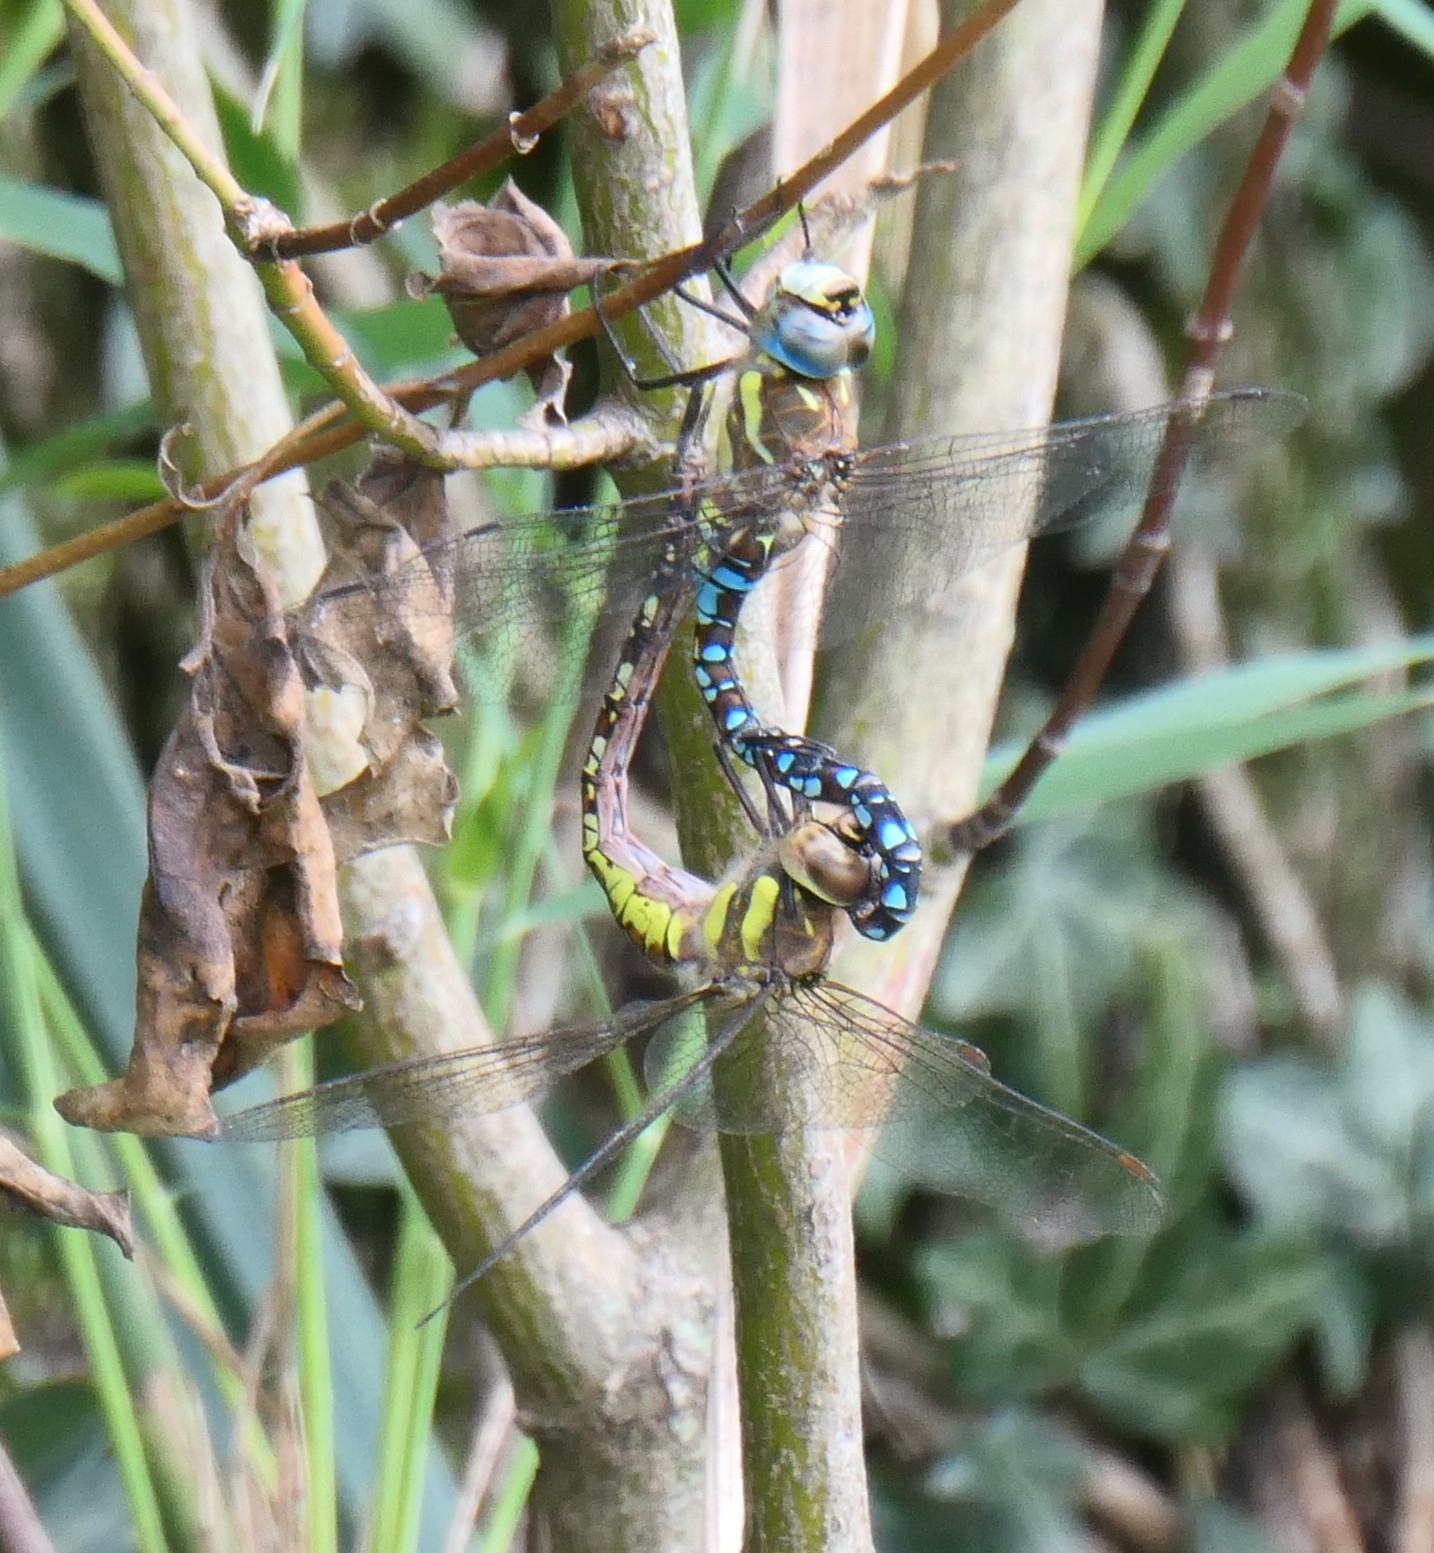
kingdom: Animalia
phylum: Arthropoda
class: Insecta
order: Odonata
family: Aeshnidae
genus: Aeshna
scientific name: Aeshna mixta
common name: Migrant hawker
